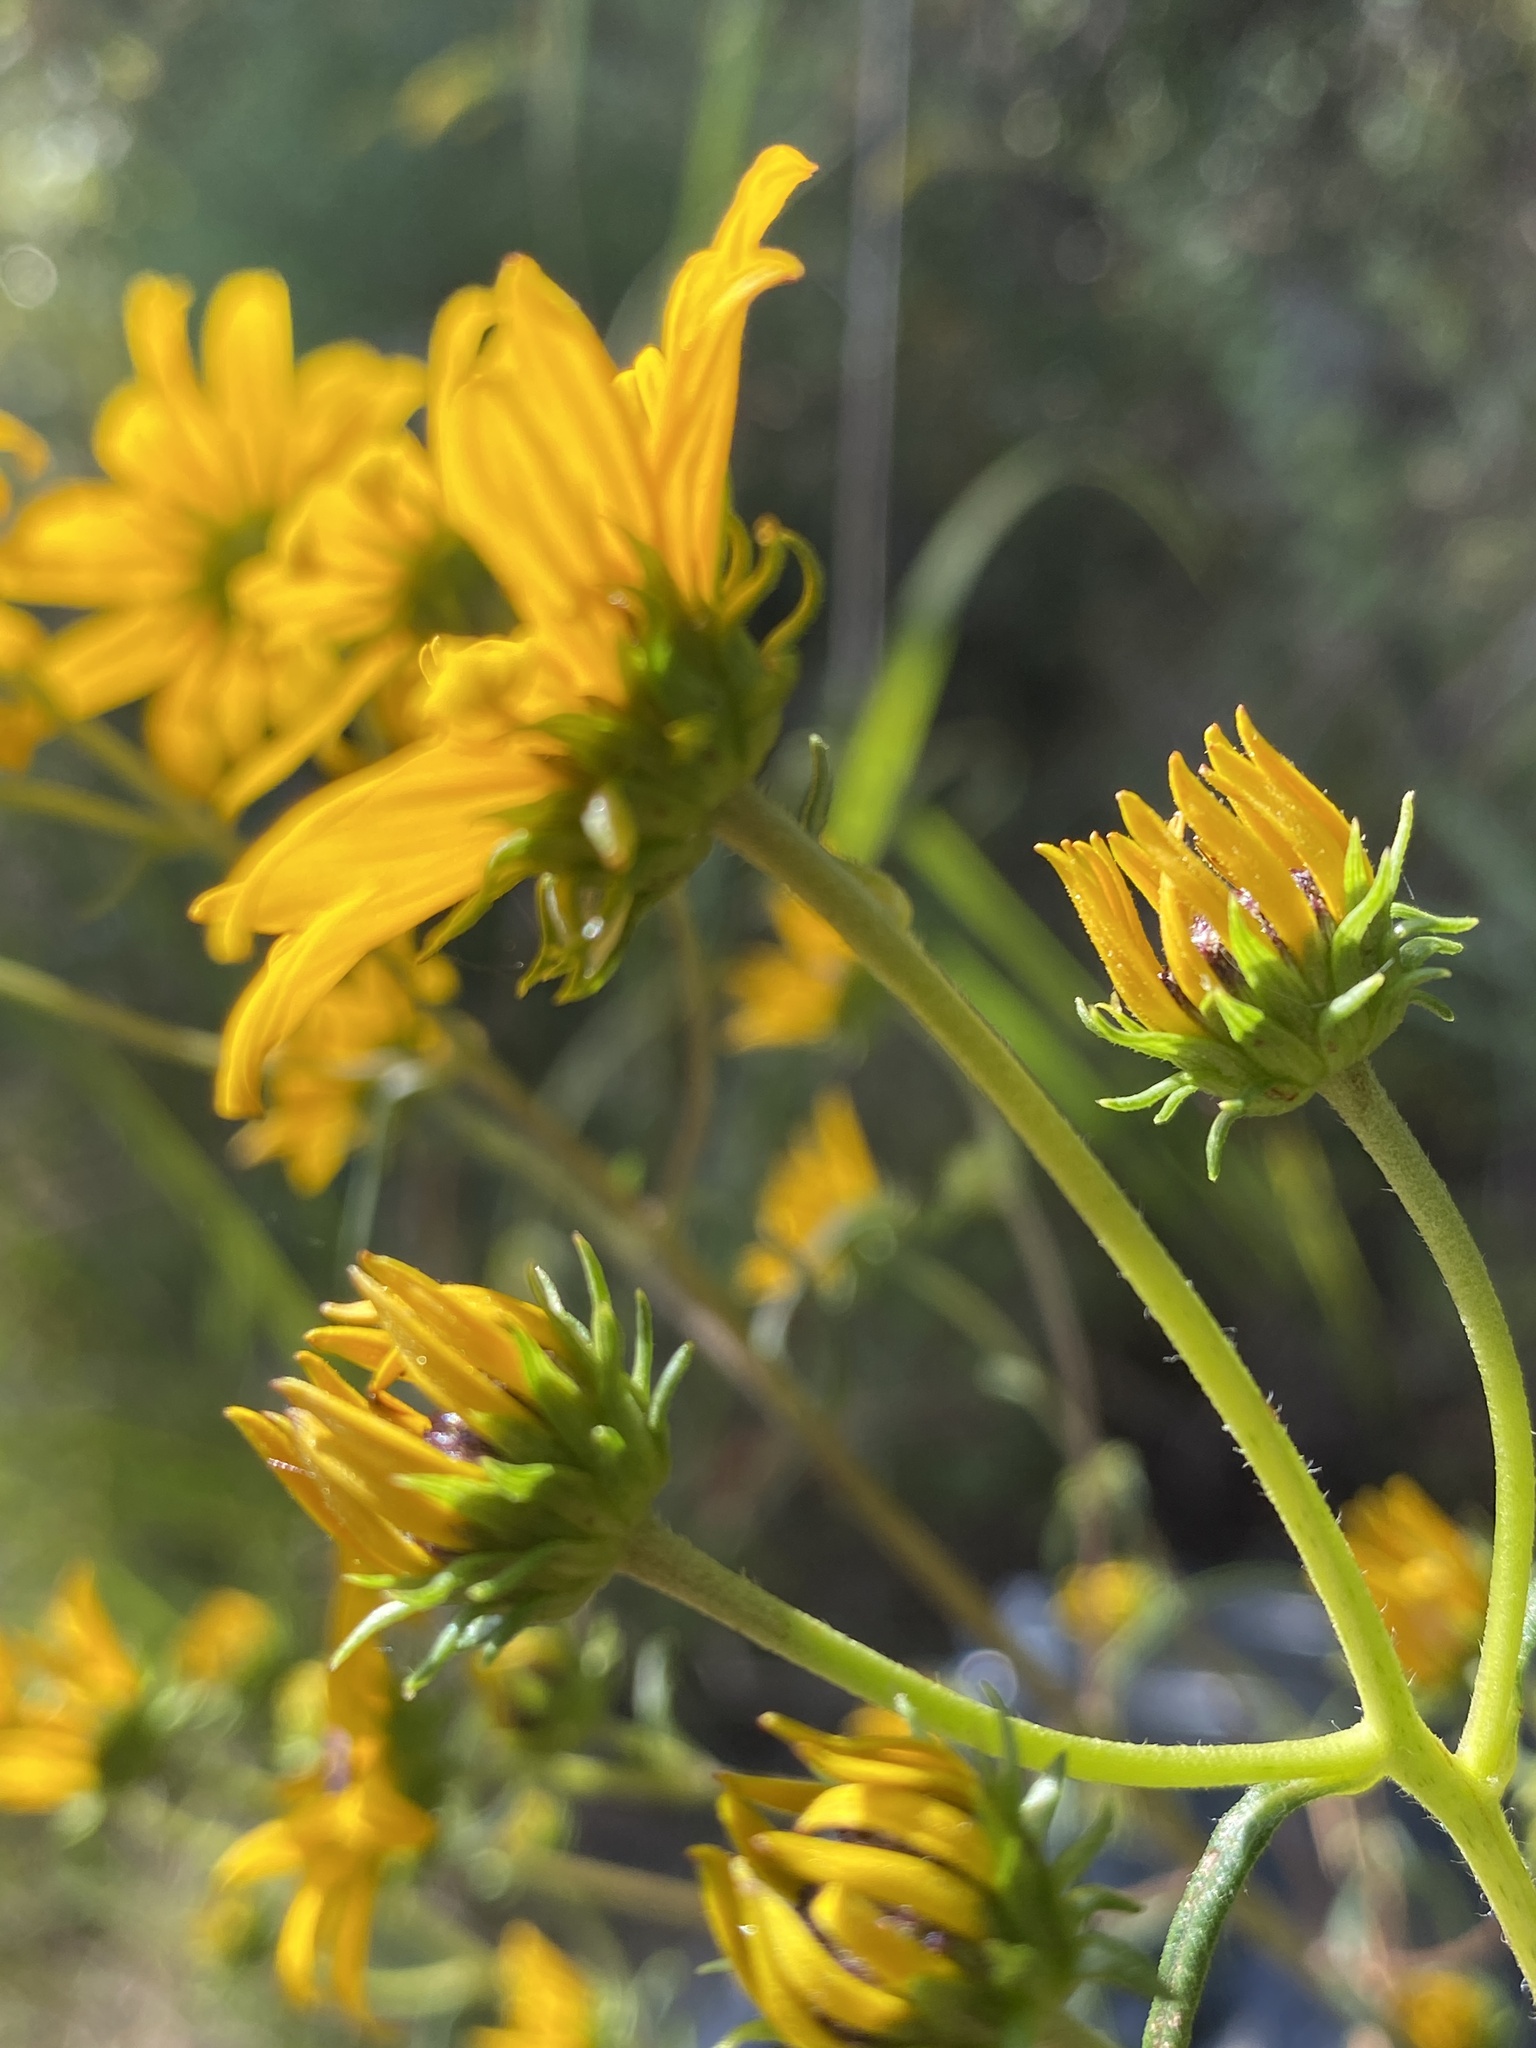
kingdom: Plantae
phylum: Tracheophyta
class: Magnoliopsida
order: Asterales
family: Asteraceae
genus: Helianthus
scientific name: Helianthus angustifolius
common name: Swamp sunflower
